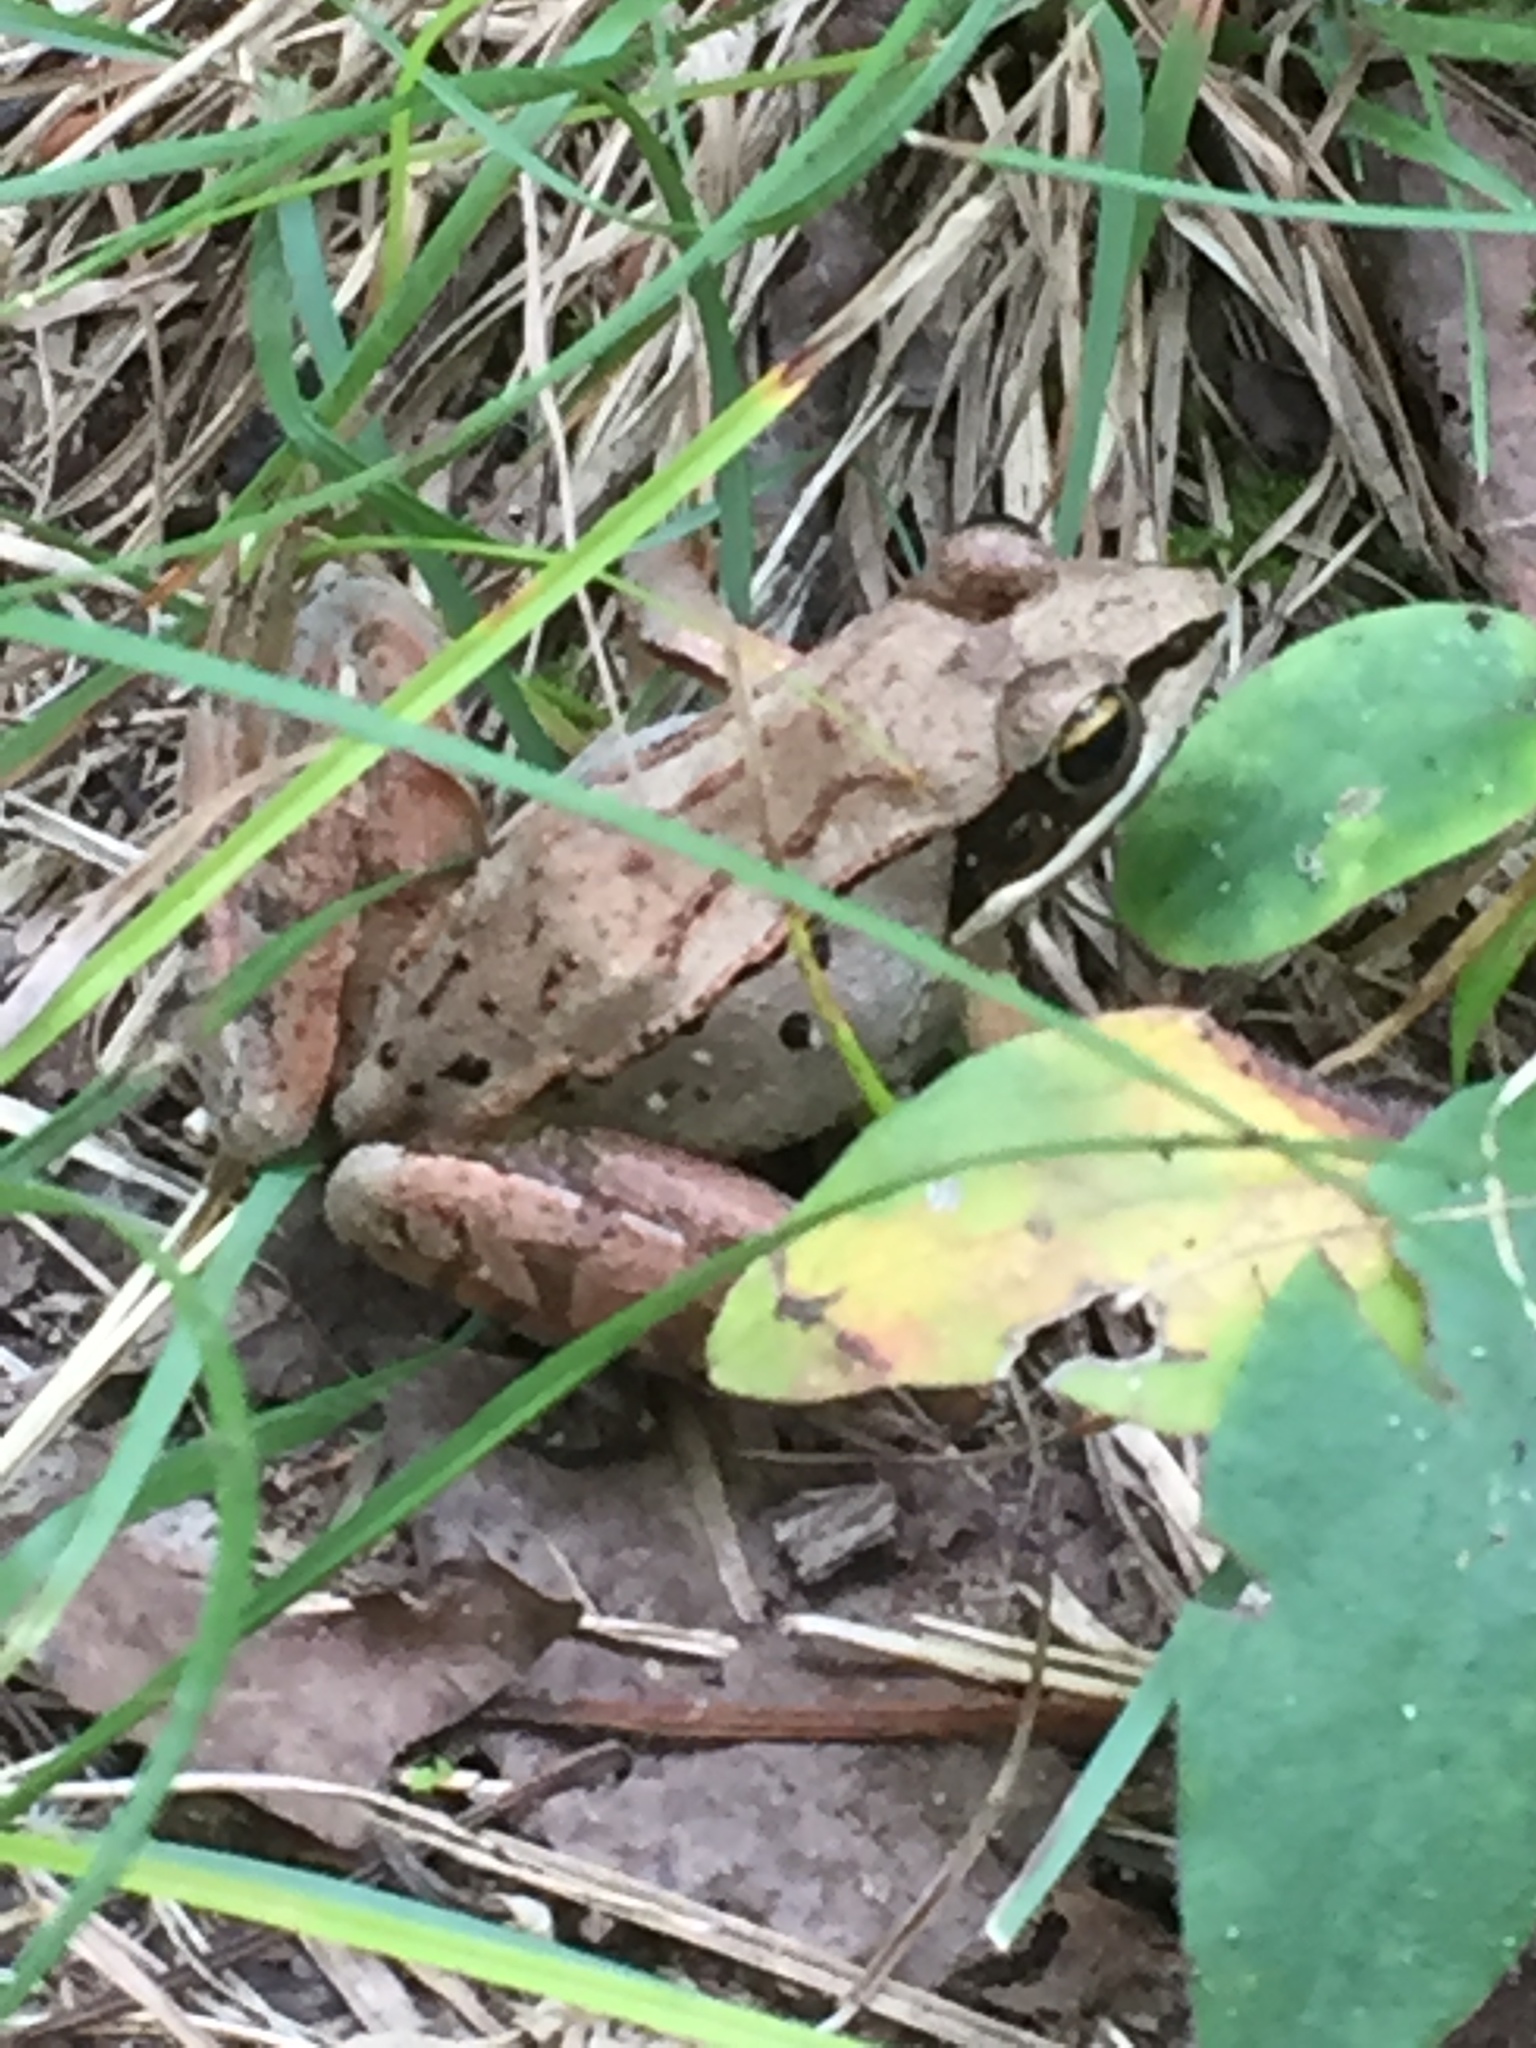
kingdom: Animalia
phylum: Chordata
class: Amphibia
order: Anura
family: Ranidae
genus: Lithobates
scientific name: Lithobates sylvaticus
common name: Wood frog
